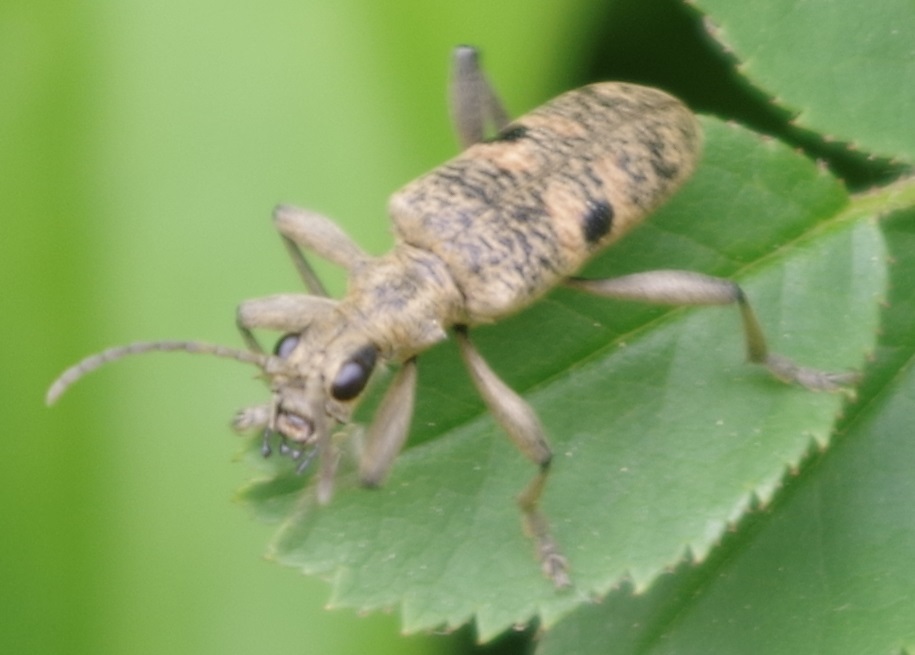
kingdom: Animalia
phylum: Arthropoda
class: Insecta
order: Coleoptera
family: Cerambycidae
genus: Rhagium
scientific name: Rhagium mordax
